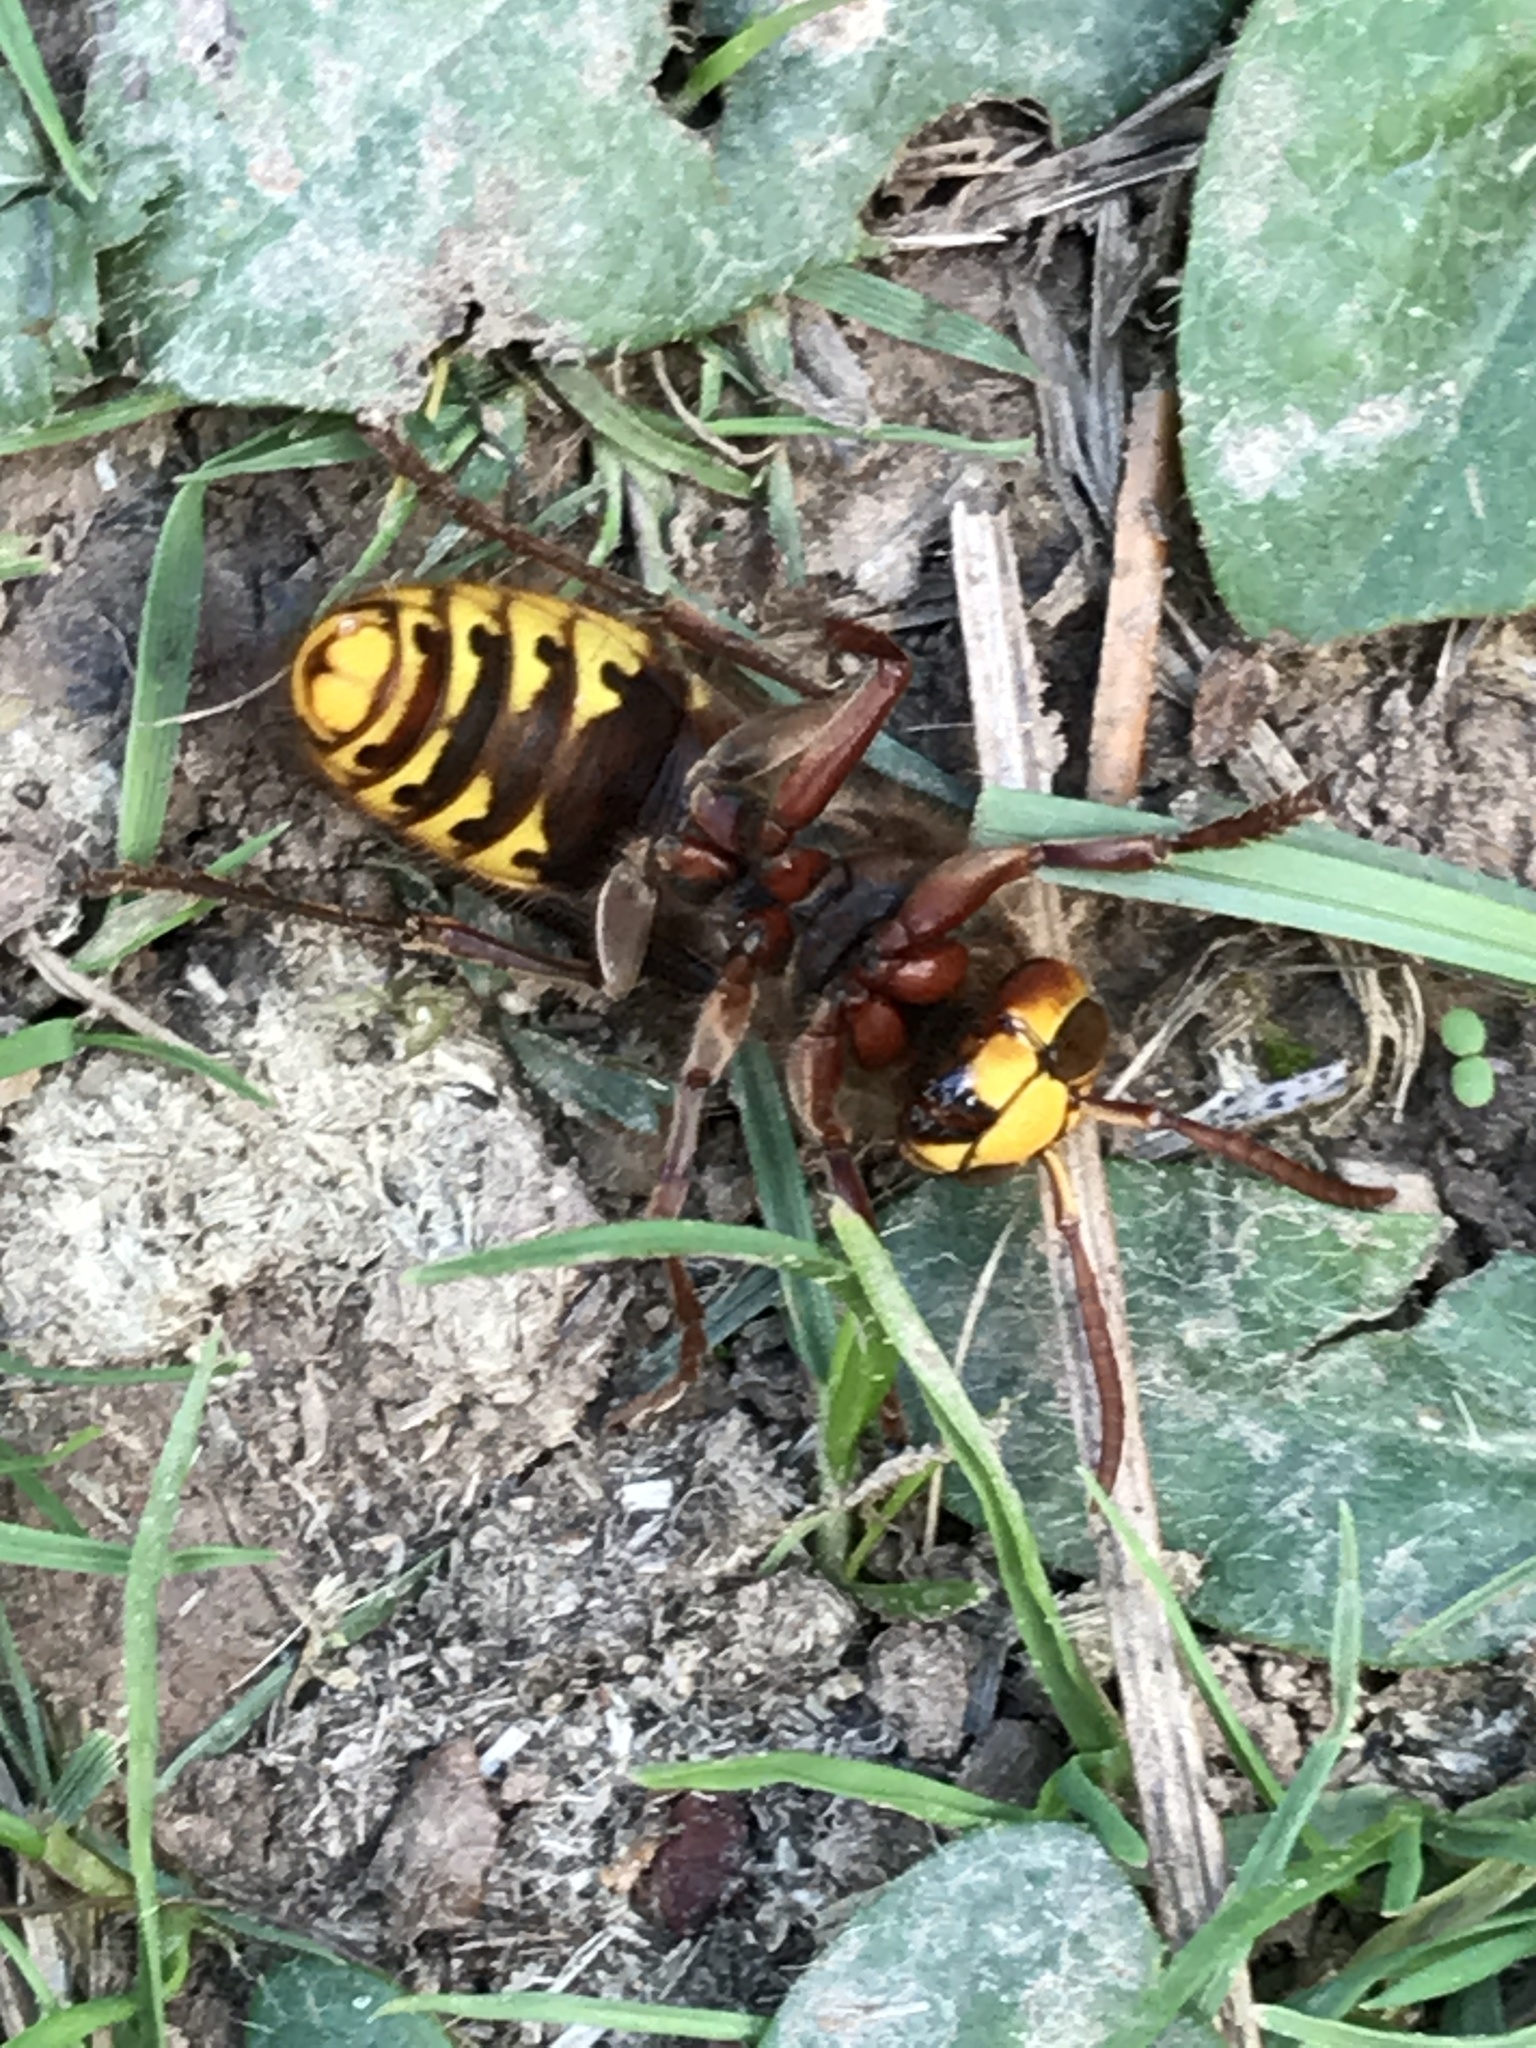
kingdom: Animalia
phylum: Arthropoda
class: Insecta
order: Hymenoptera
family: Vespidae
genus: Vespa
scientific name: Vespa crabro
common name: Hornet
